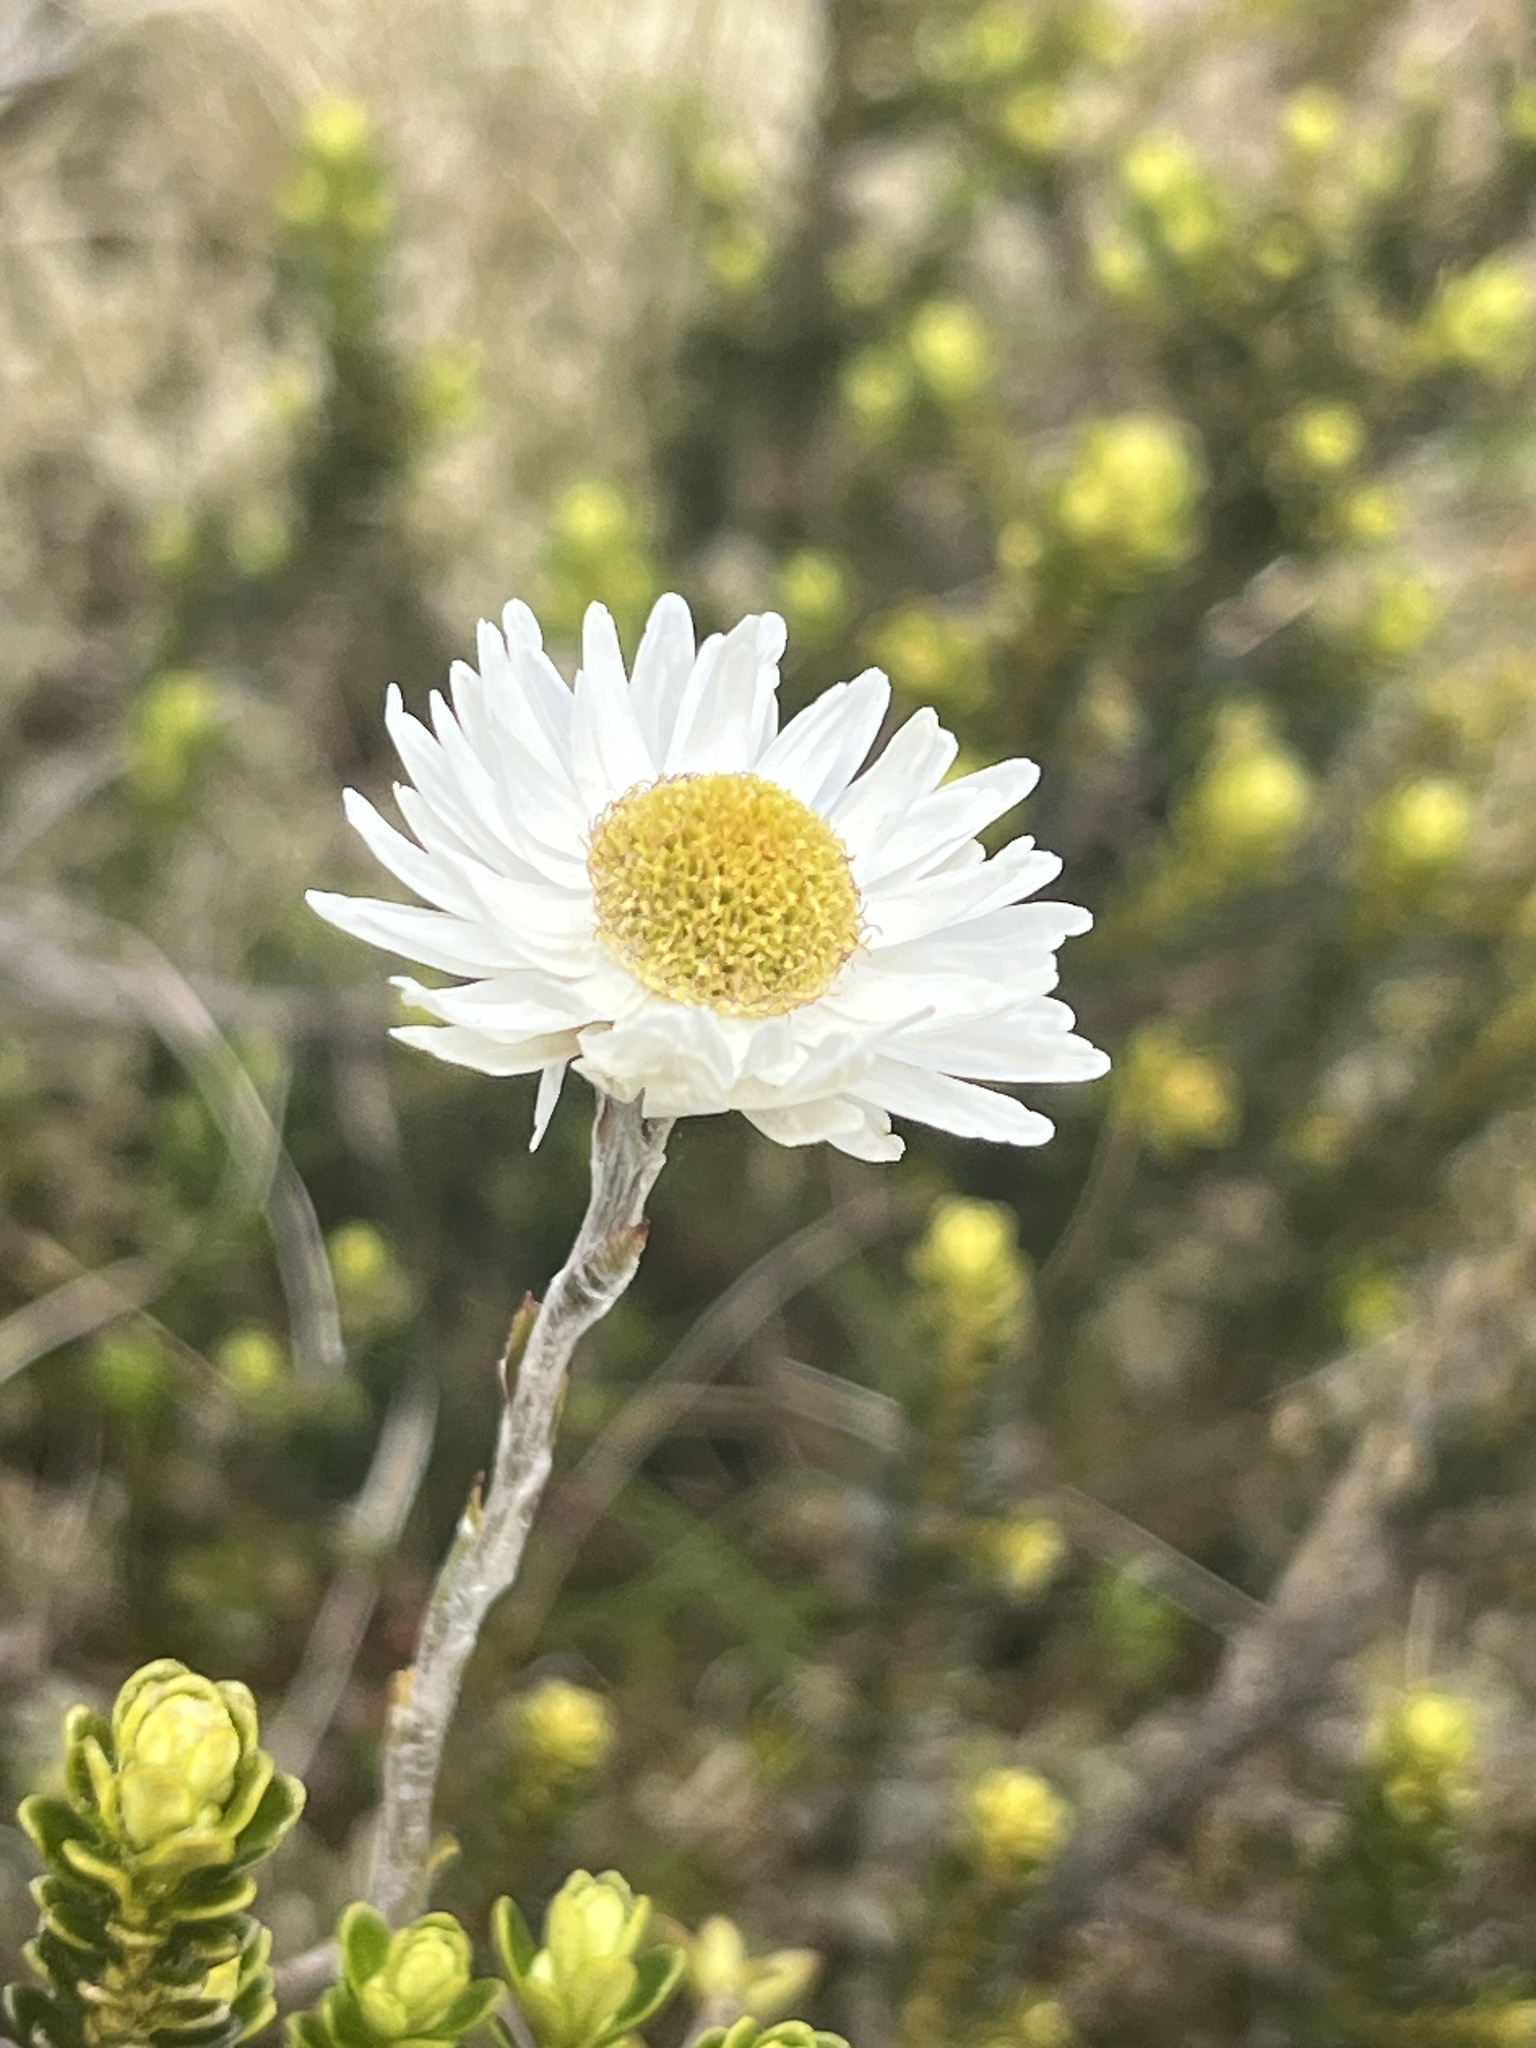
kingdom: Plantae
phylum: Tracheophyta
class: Magnoliopsida
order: Asterales
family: Asteraceae
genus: Anaphalioides
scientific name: Anaphalioides alpina
